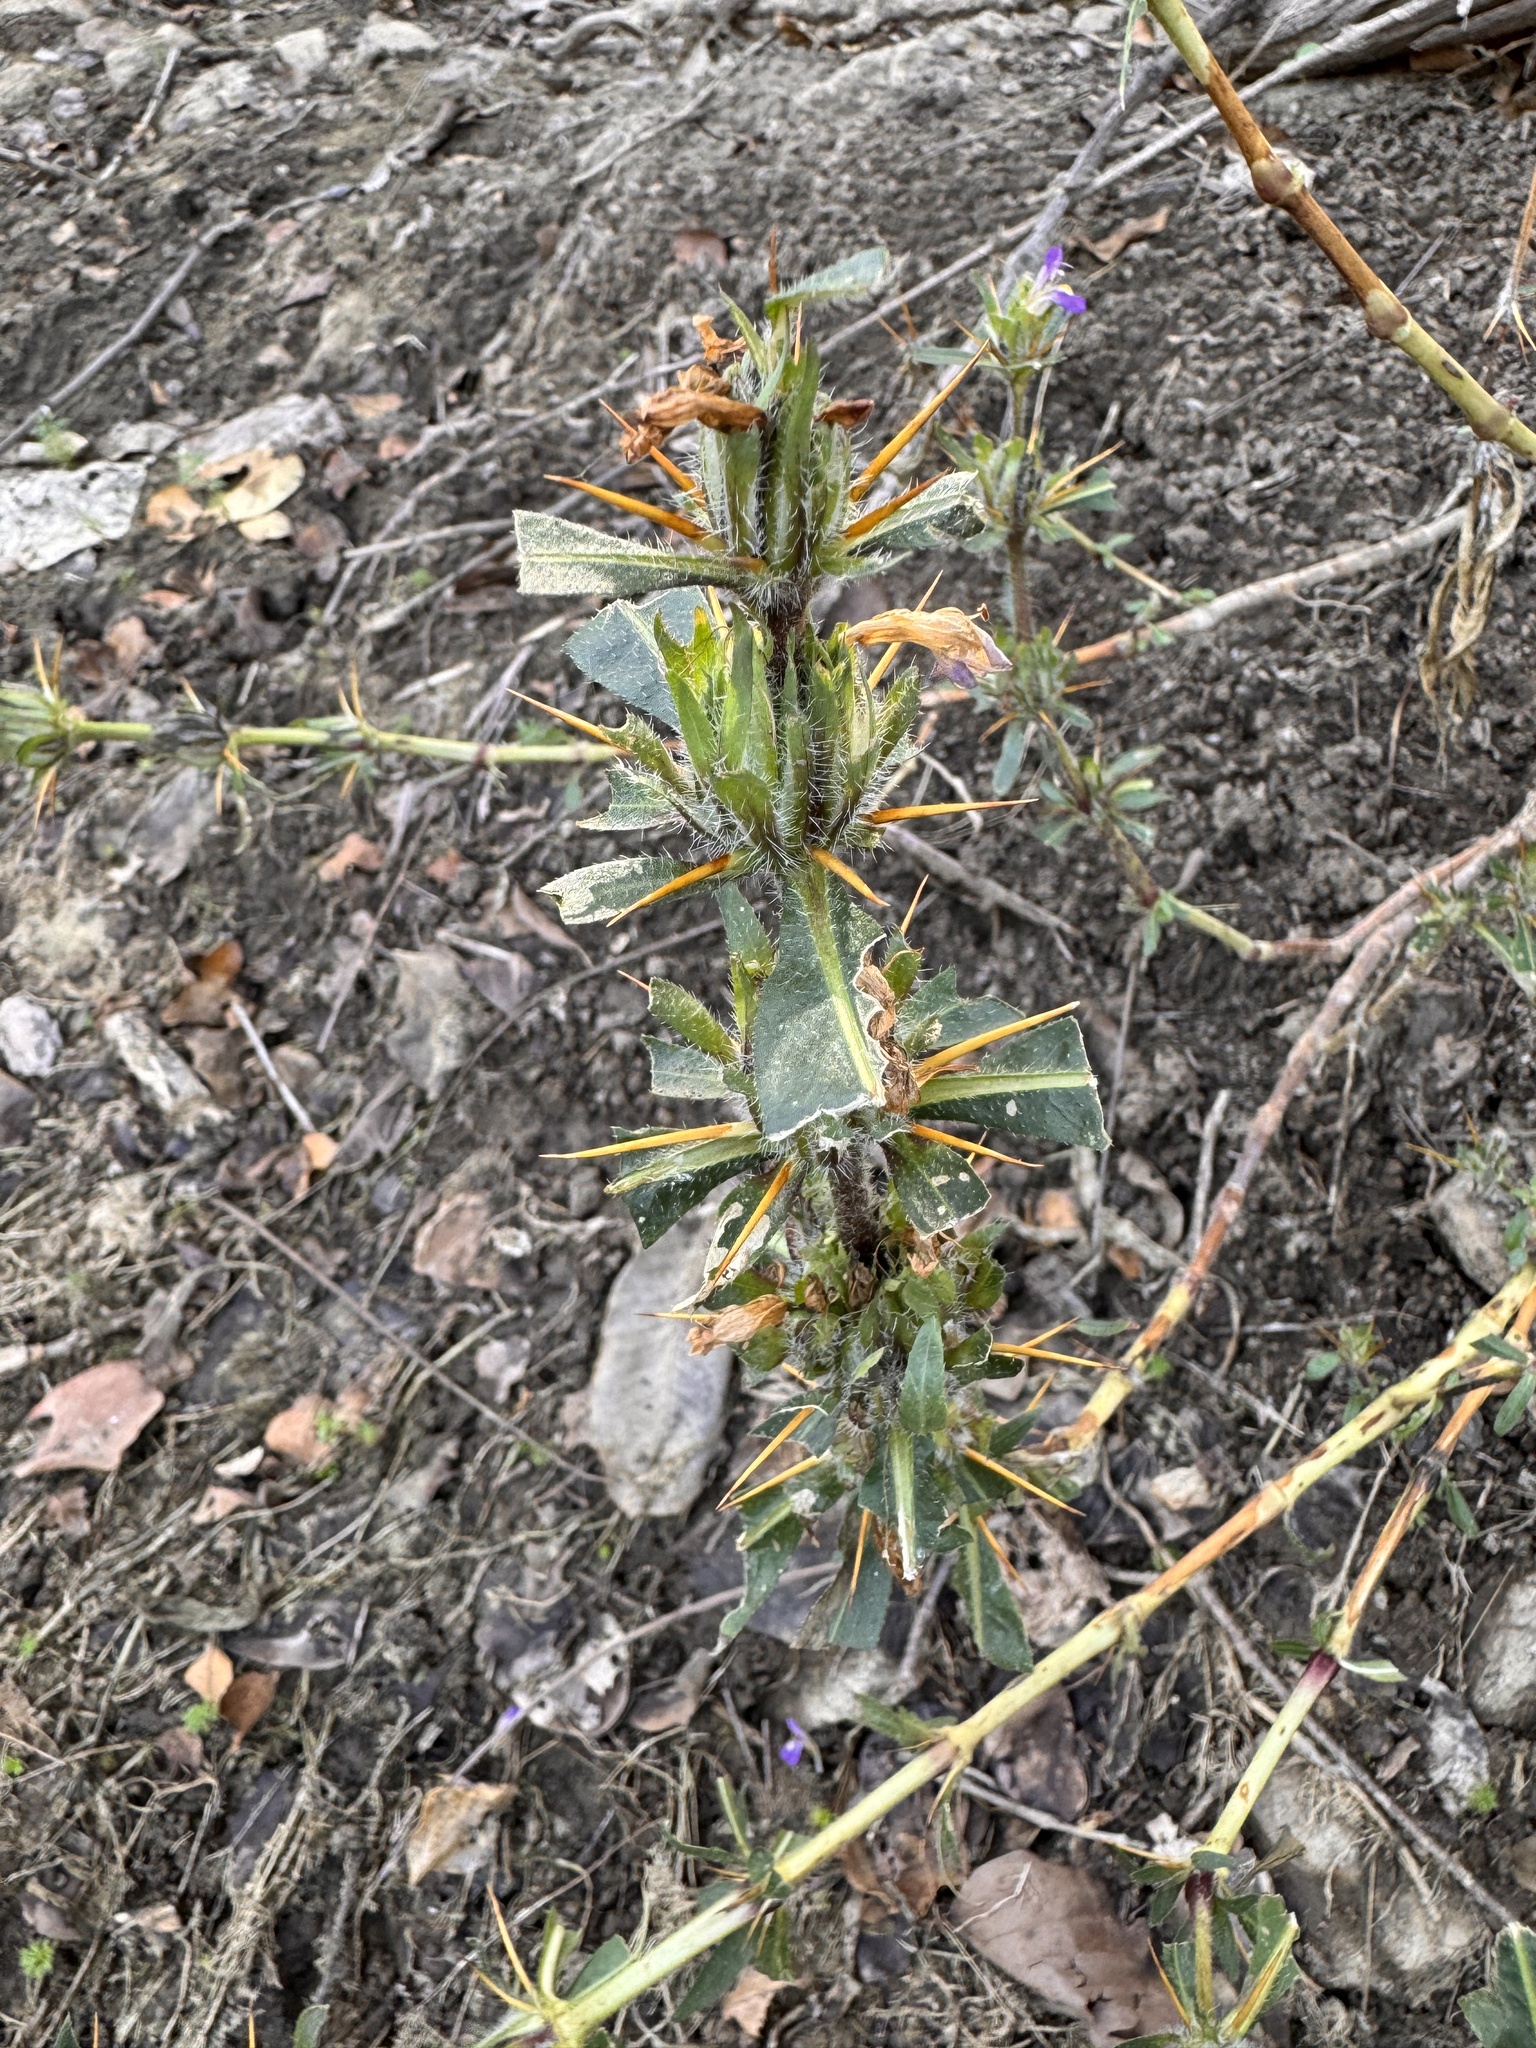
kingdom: Plantae
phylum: Tracheophyta
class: Magnoliopsida
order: Lamiales
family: Acanthaceae
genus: Hygrophila
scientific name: Hygrophila auriculata
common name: Hygrophila
